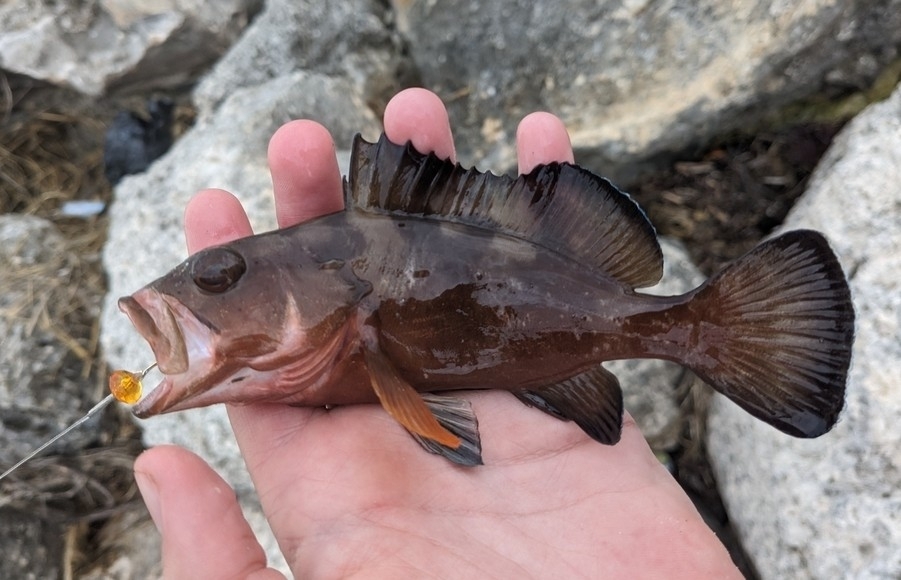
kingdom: Animalia
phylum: Chordata
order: Perciformes
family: Serranidae
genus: Epinephelus
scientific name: Epinephelus morio
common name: Red grouper
